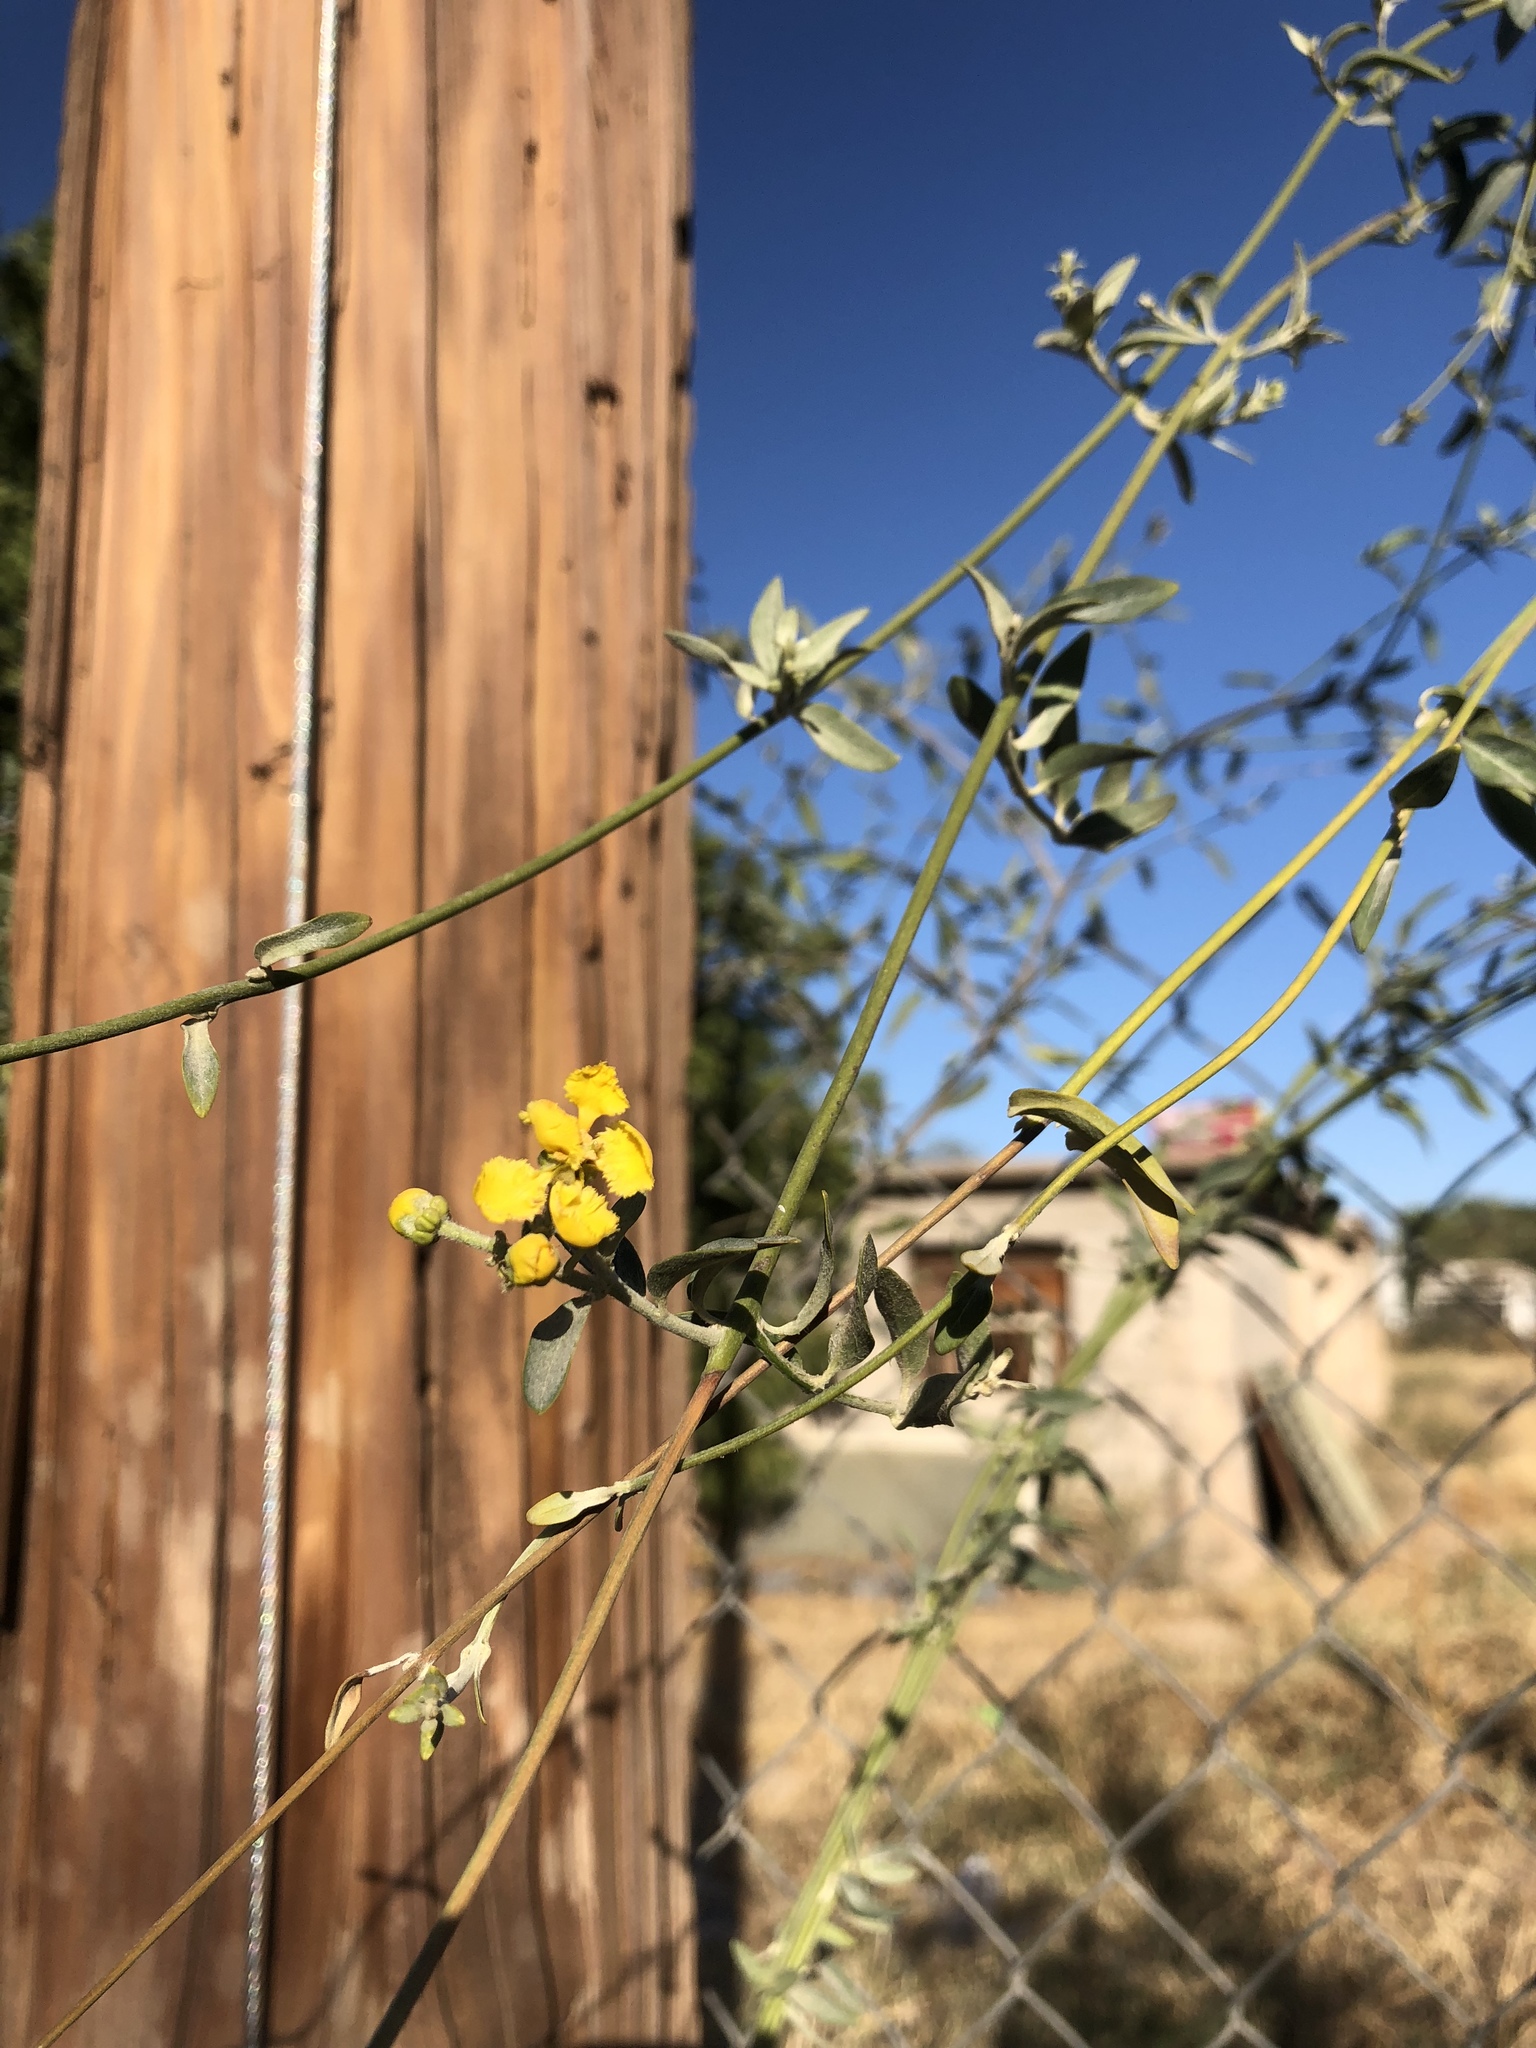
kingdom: Plantae
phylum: Tracheophyta
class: Magnoliopsida
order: Malpighiales
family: Malpighiaceae
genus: Cottsia
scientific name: Cottsia californica
